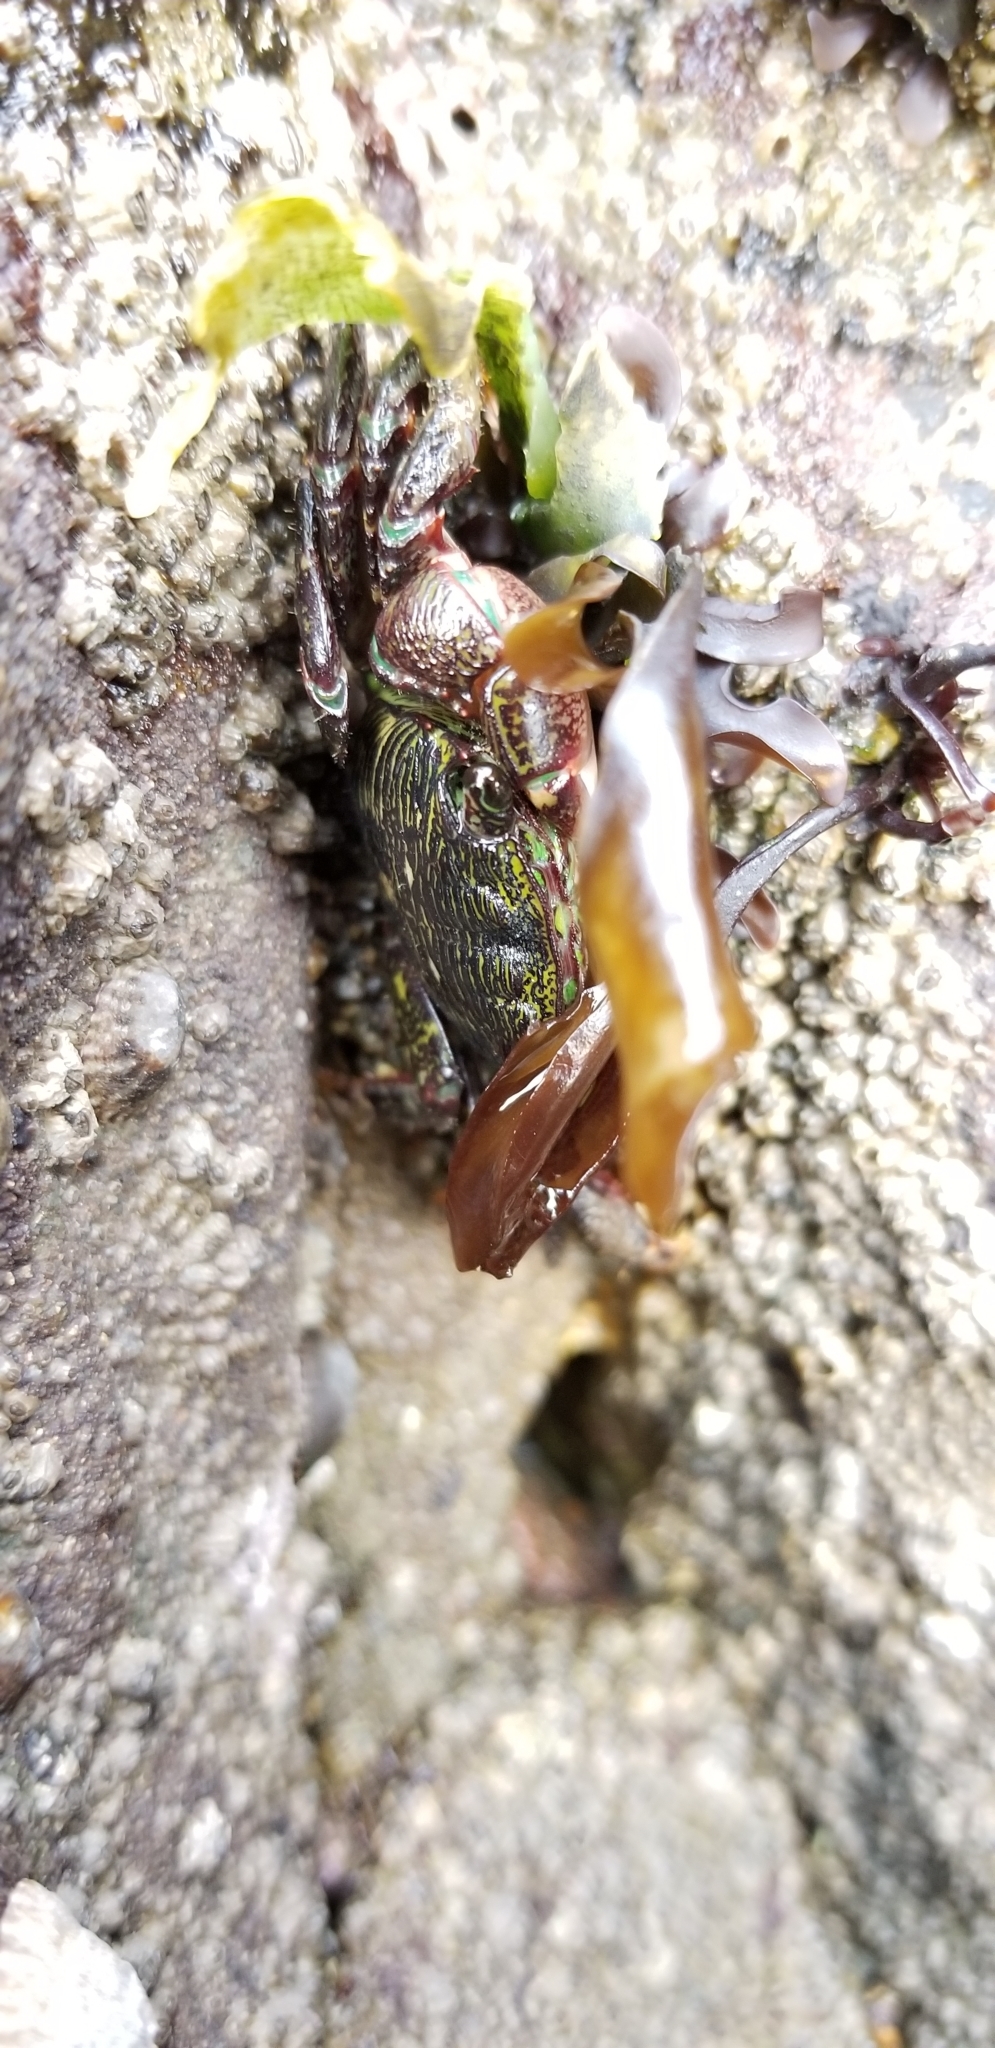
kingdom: Animalia
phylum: Arthropoda
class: Malacostraca
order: Decapoda
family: Grapsidae
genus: Pachygrapsus
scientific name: Pachygrapsus crassipes
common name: Striped shore crab
